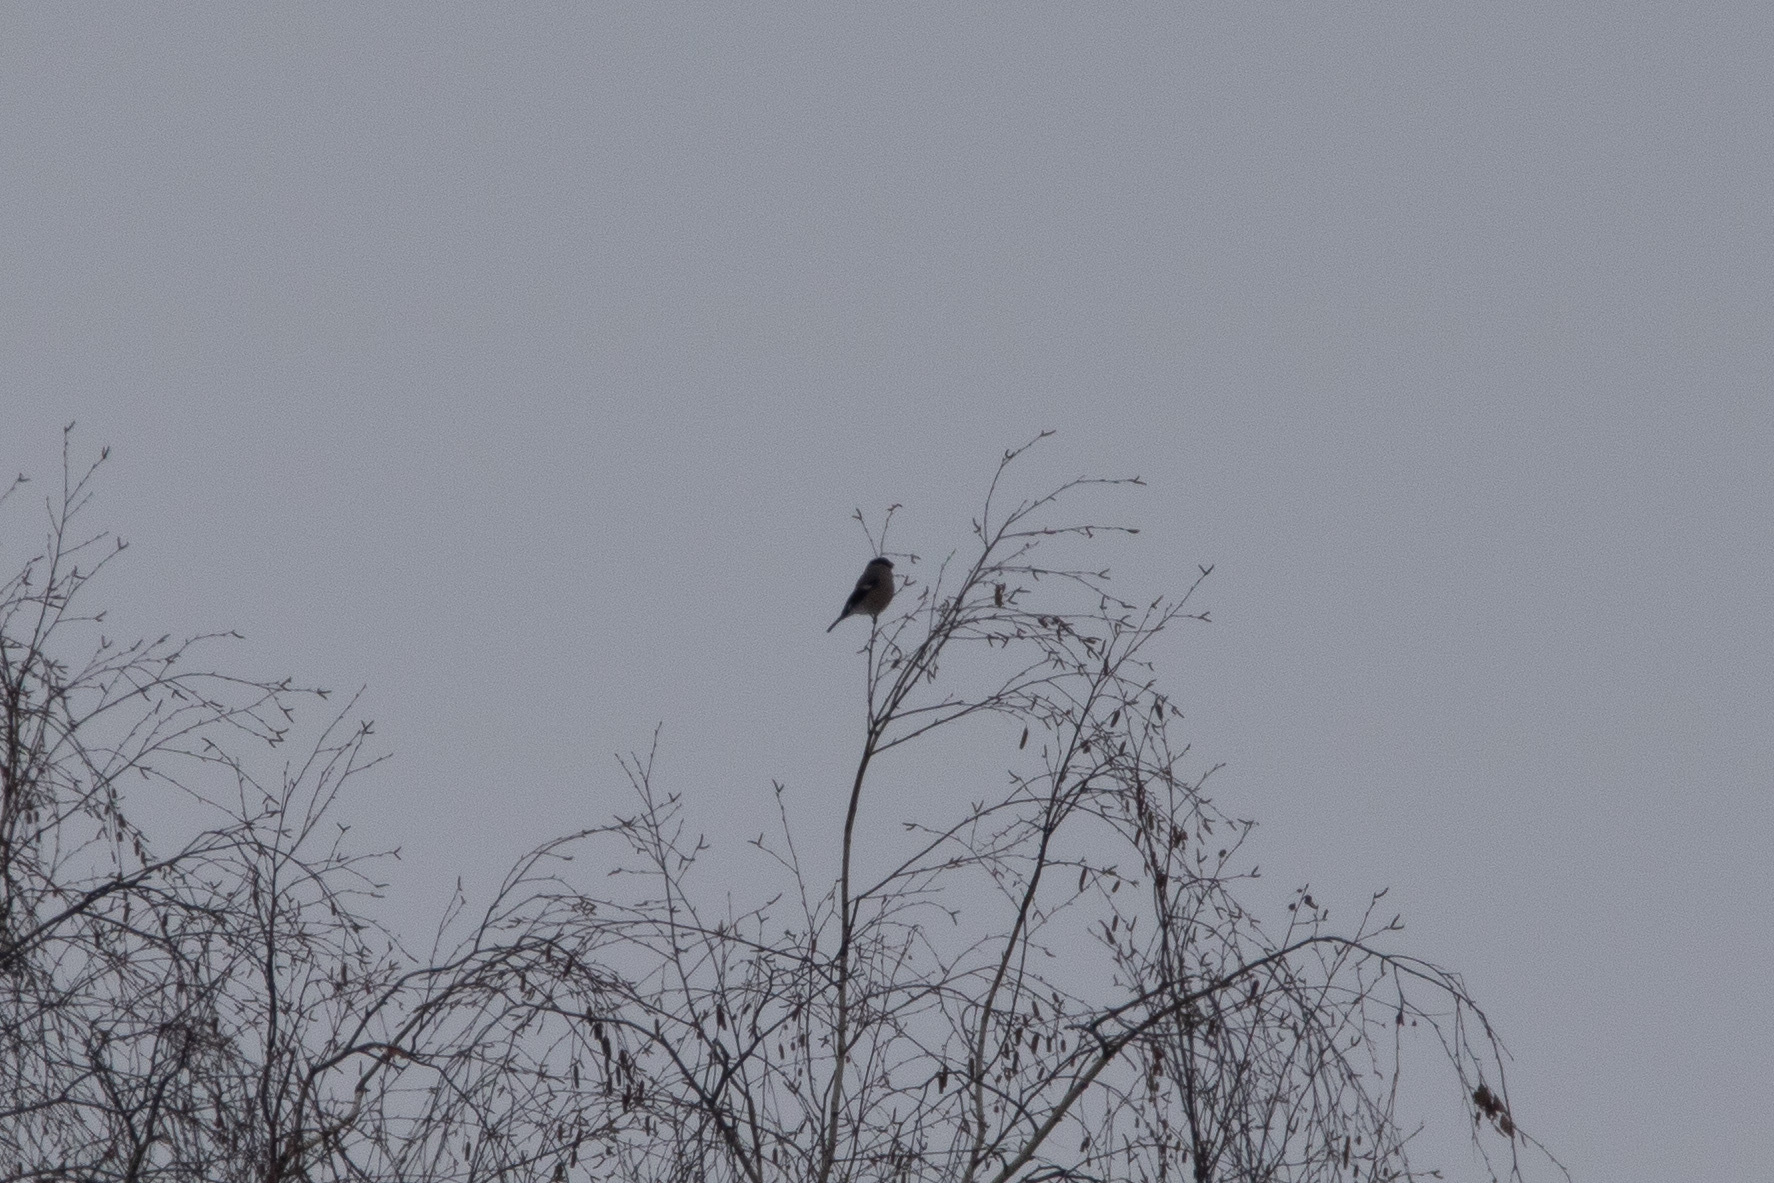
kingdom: Animalia
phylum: Chordata
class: Aves
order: Passeriformes
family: Fringillidae
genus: Pyrrhula
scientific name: Pyrrhula pyrrhula
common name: Eurasian bullfinch
